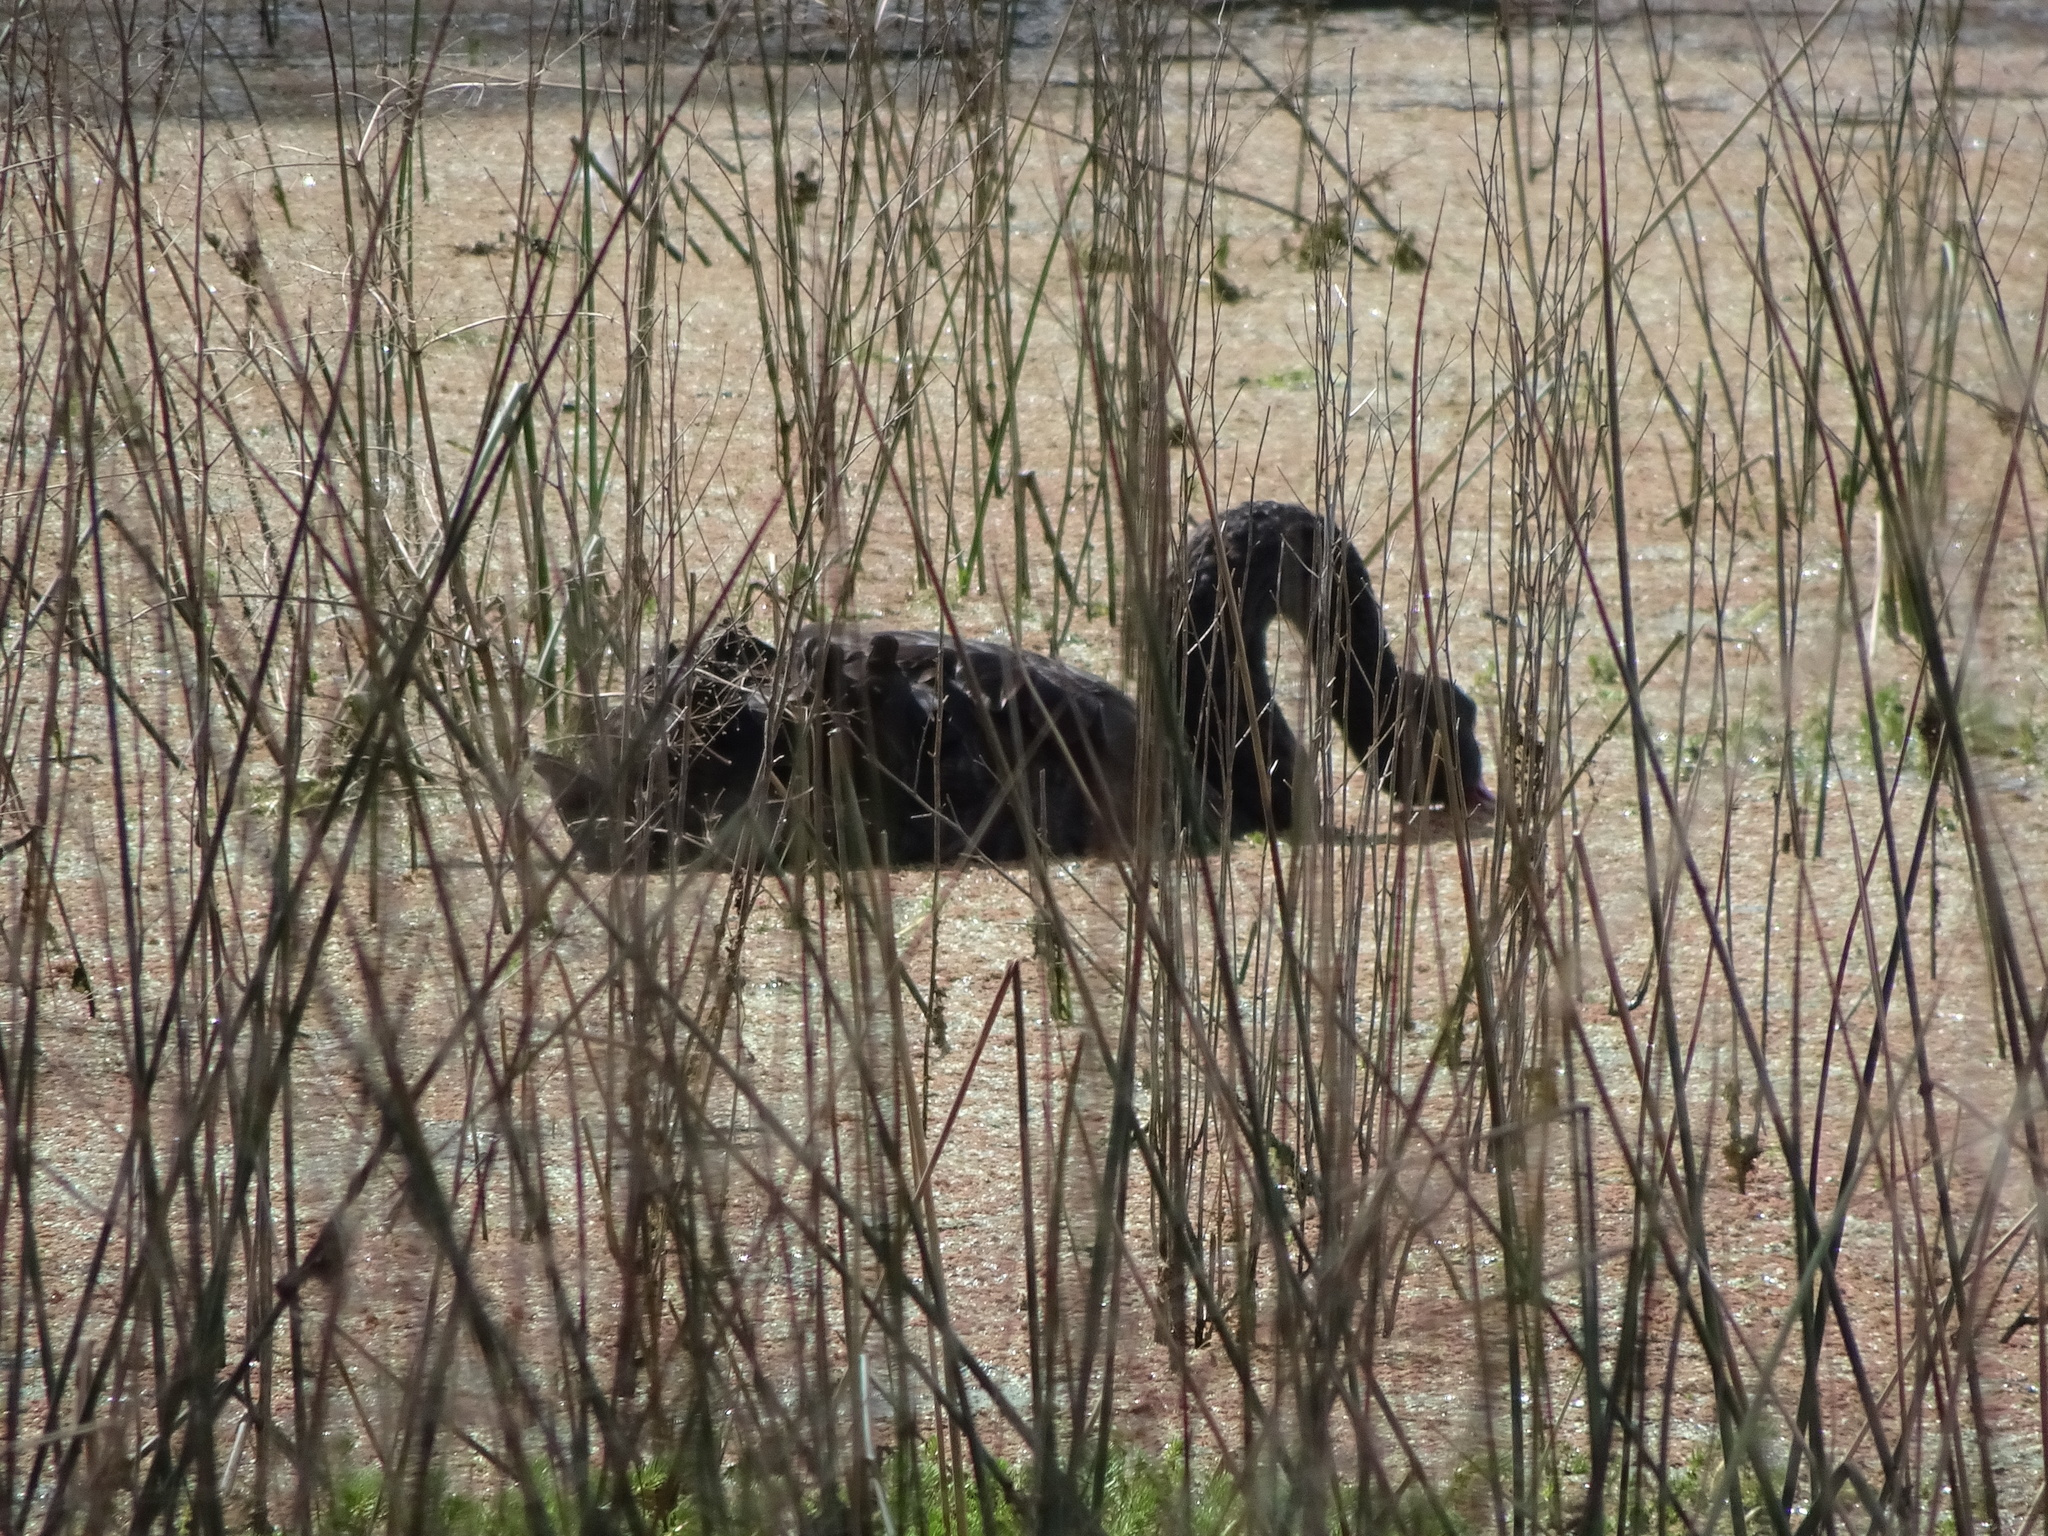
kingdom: Animalia
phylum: Chordata
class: Aves
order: Anseriformes
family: Anatidae
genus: Cygnus
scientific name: Cygnus atratus
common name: Black swan
